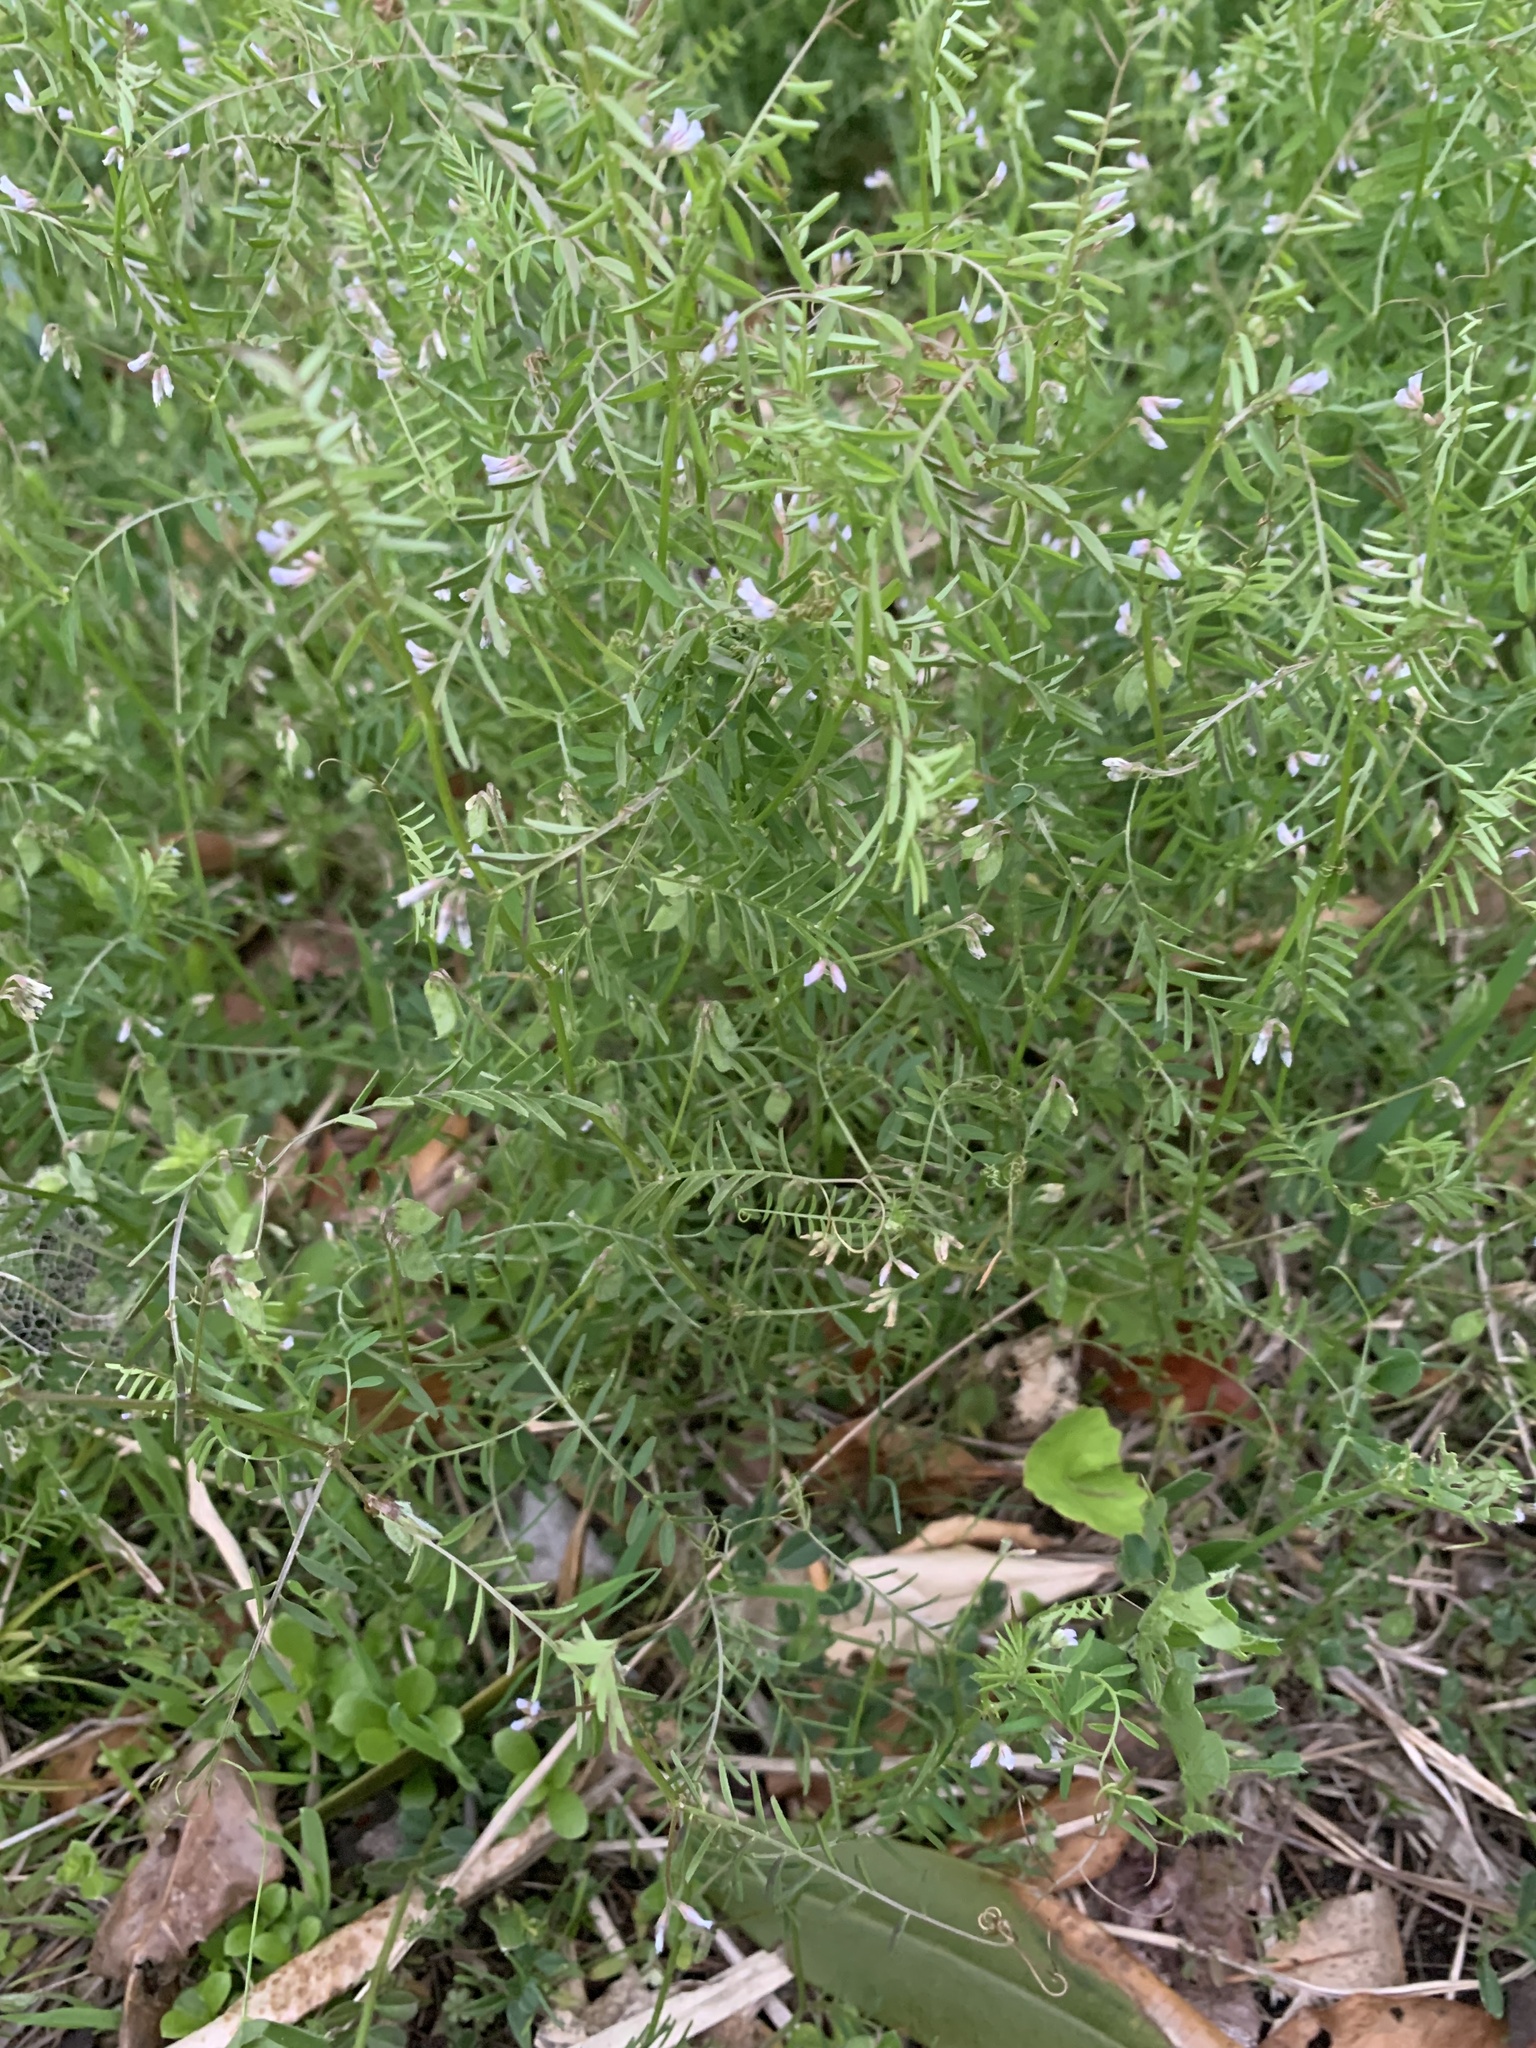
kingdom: Plantae
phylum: Tracheophyta
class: Magnoliopsida
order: Fabales
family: Fabaceae
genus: Vicia
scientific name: Vicia hirsuta
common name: Tiny vetch
